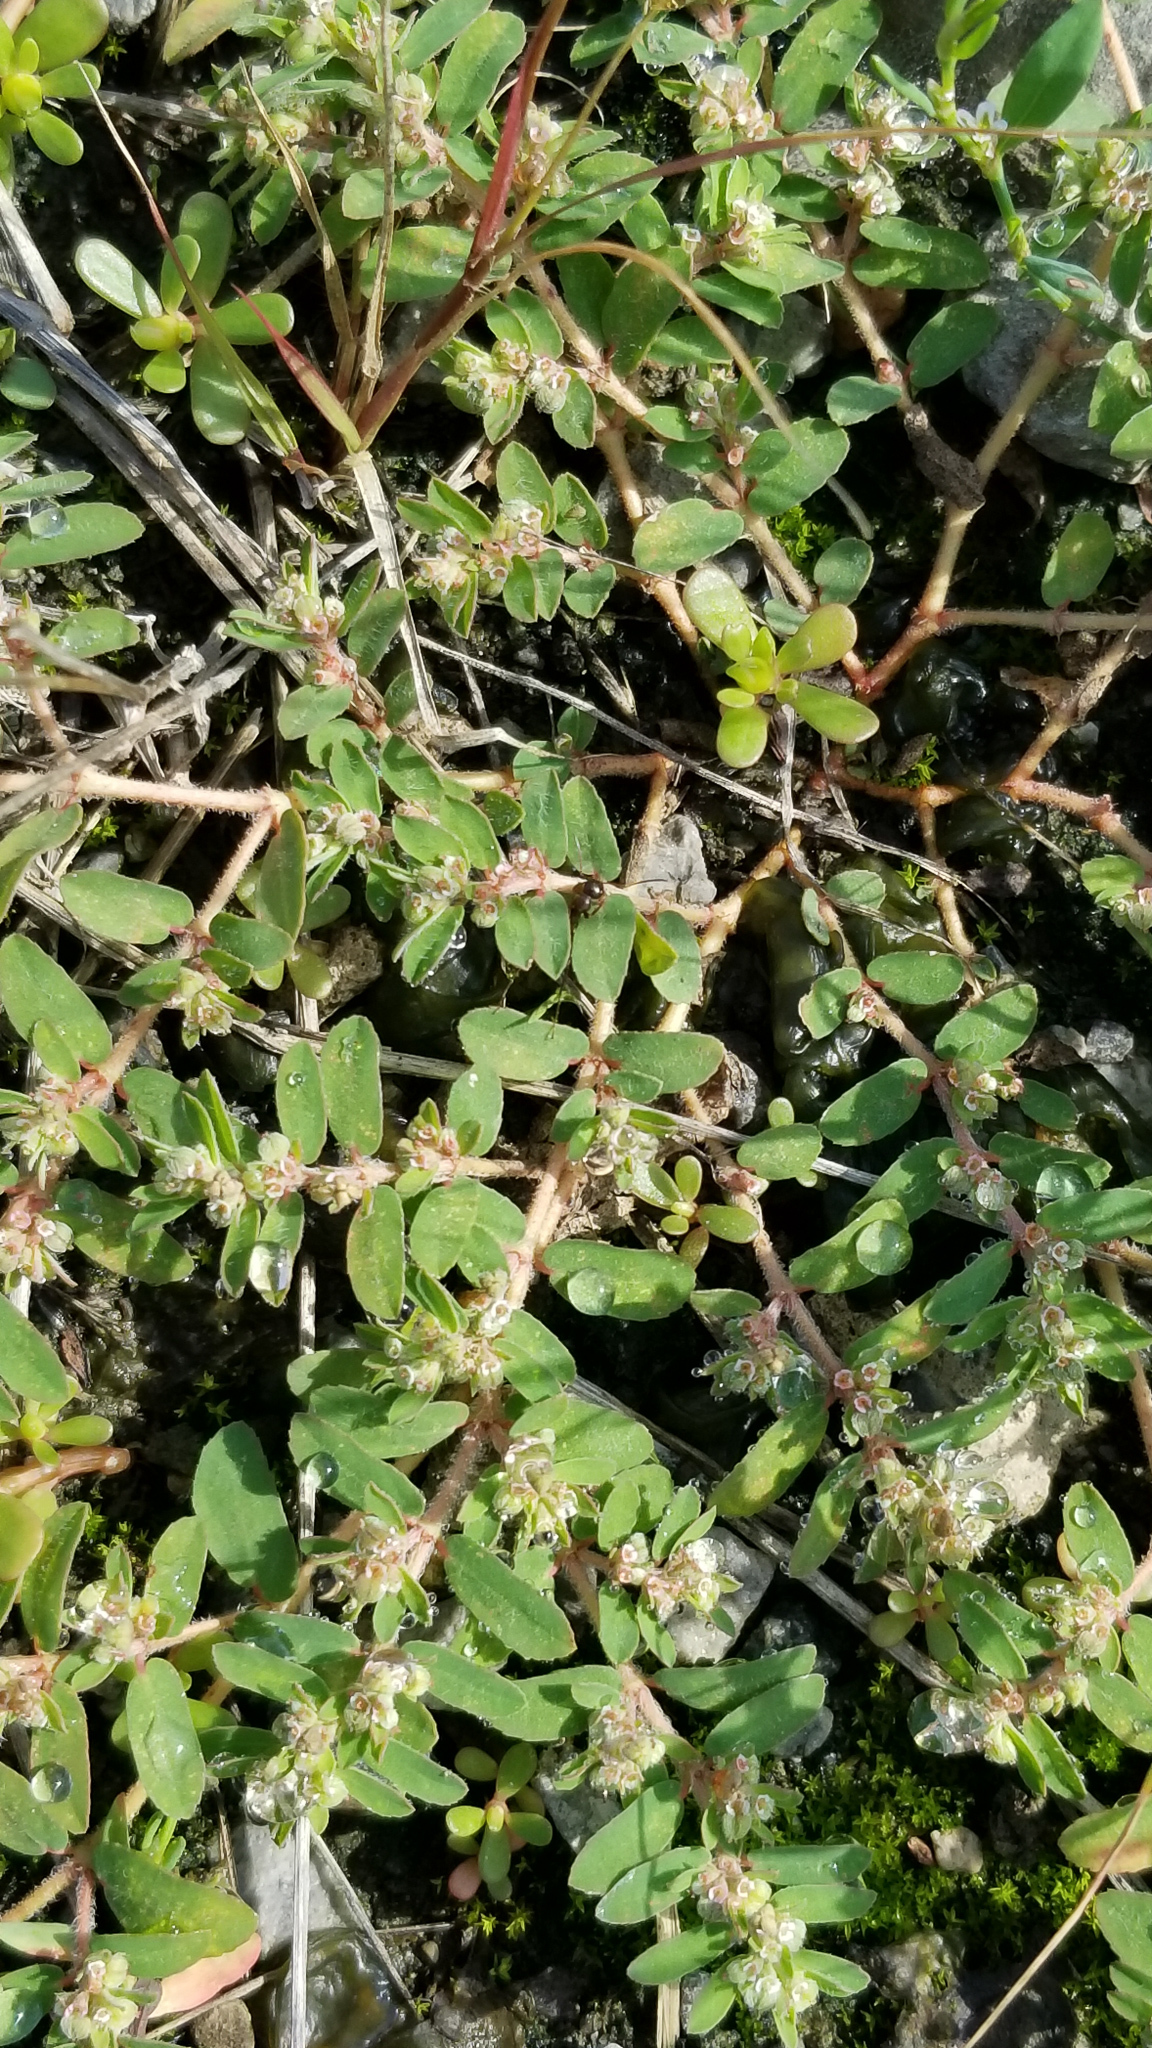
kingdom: Plantae
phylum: Tracheophyta
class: Magnoliopsida
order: Malpighiales
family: Euphorbiaceae
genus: Euphorbia
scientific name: Euphorbia maculata
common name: Spotted spurge
